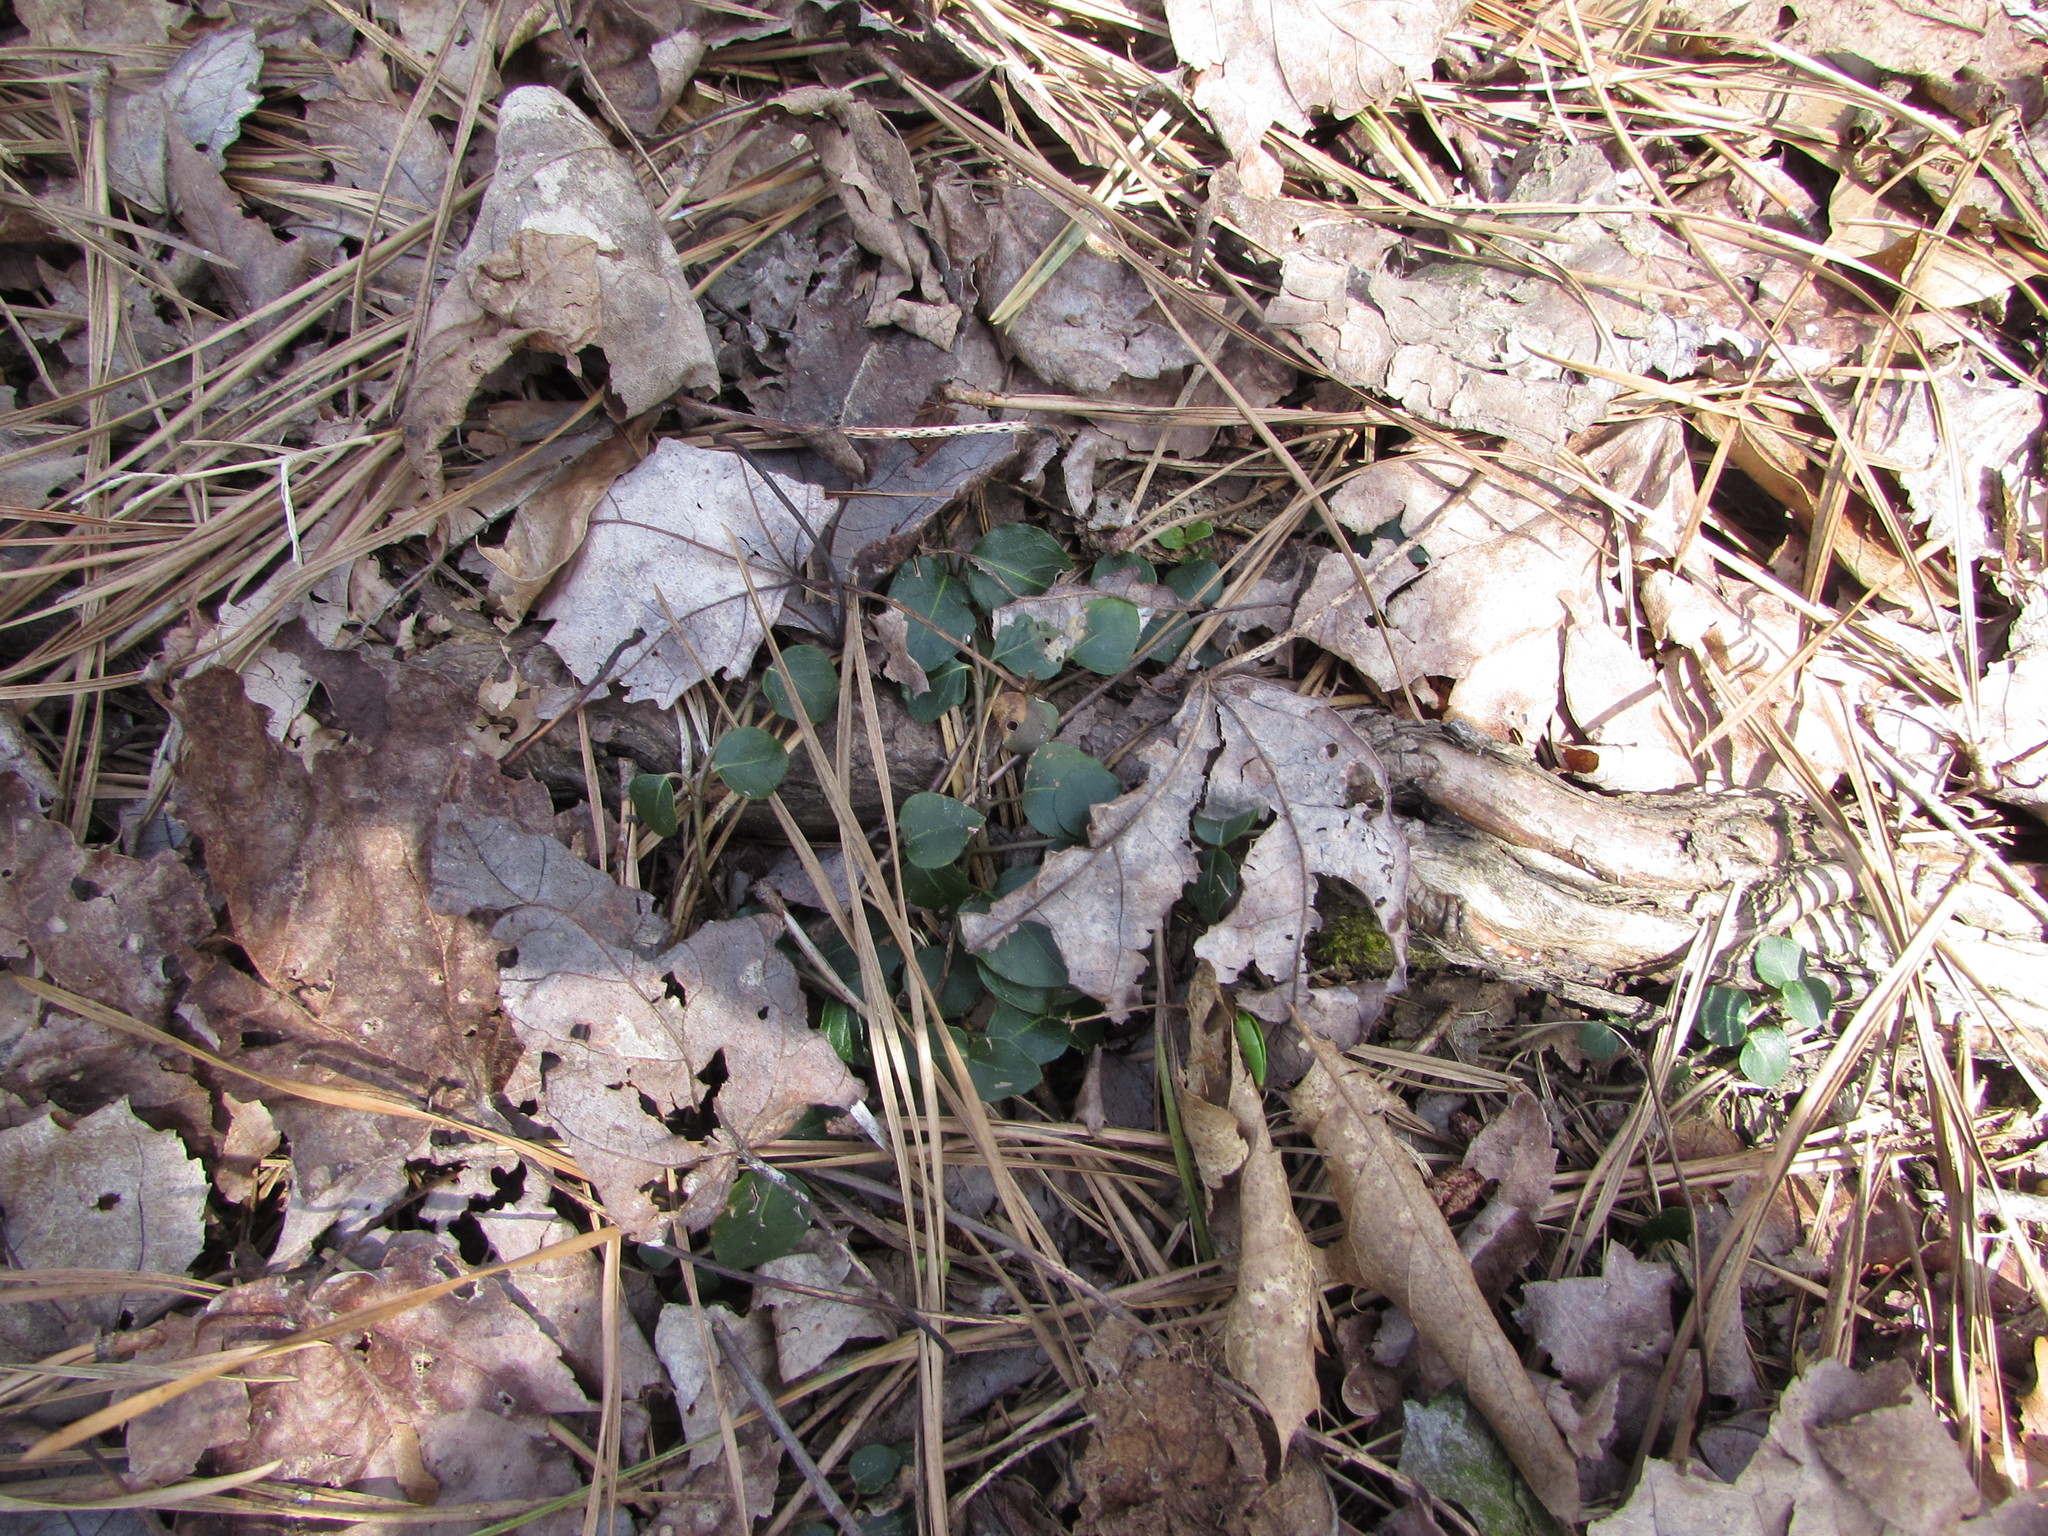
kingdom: Plantae
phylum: Tracheophyta
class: Magnoliopsida
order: Gentianales
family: Rubiaceae
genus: Mitchella
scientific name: Mitchella repens
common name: Partridge-berry
